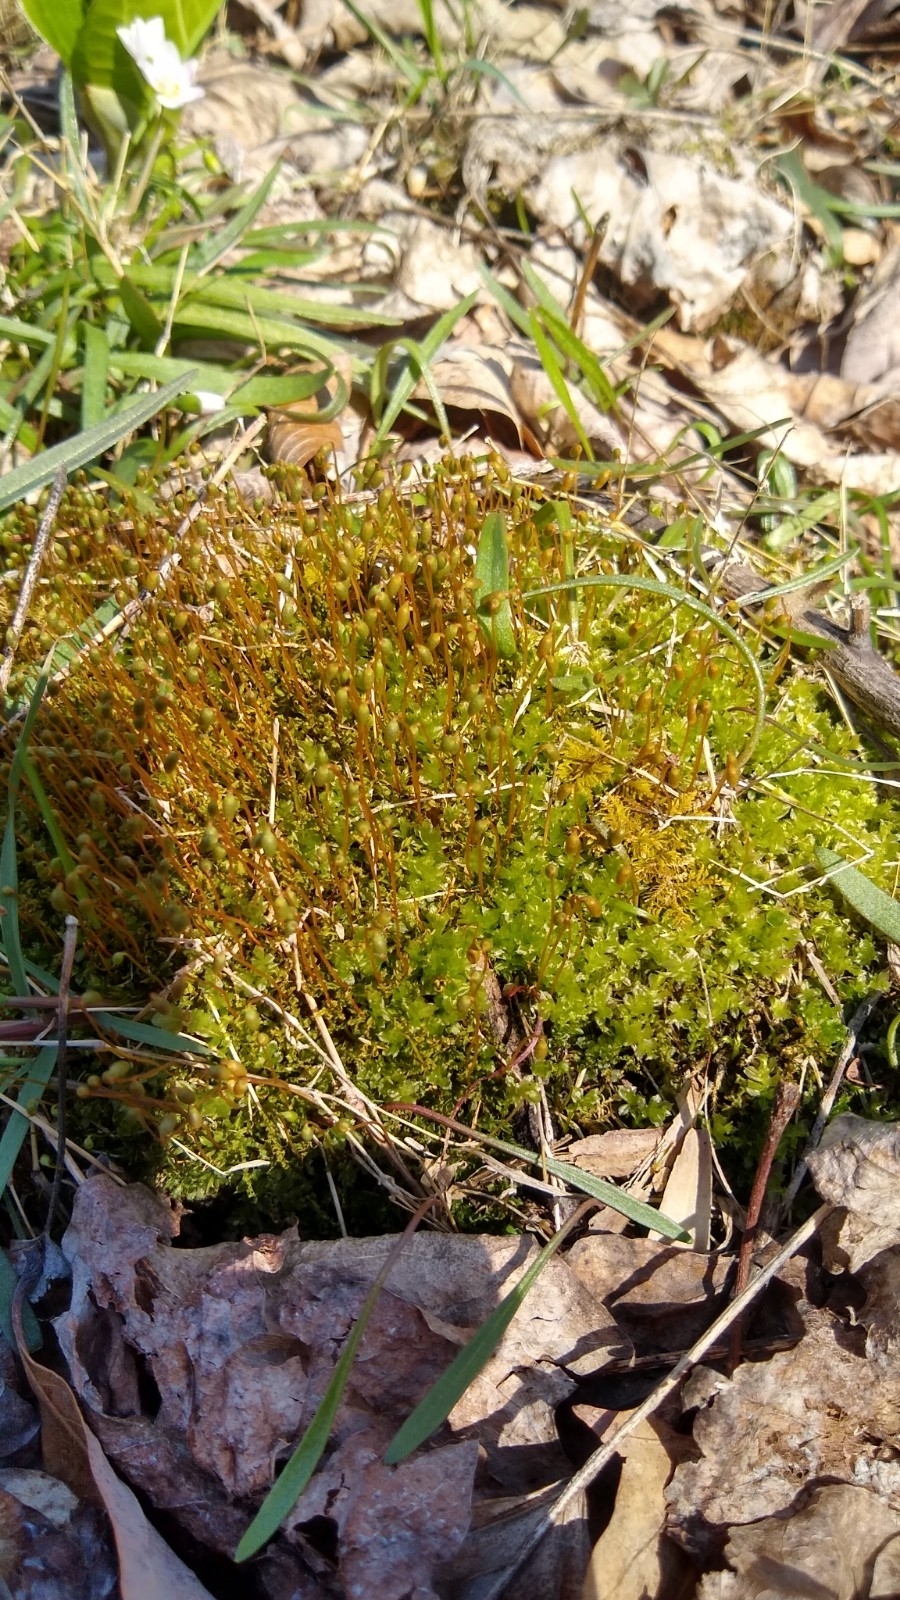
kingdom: Plantae
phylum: Bryophyta
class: Bryopsida
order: Bryales
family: Mniaceae
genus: Plagiomnium
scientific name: Plagiomnium cuspidatum
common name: Woodsy leafy moss
